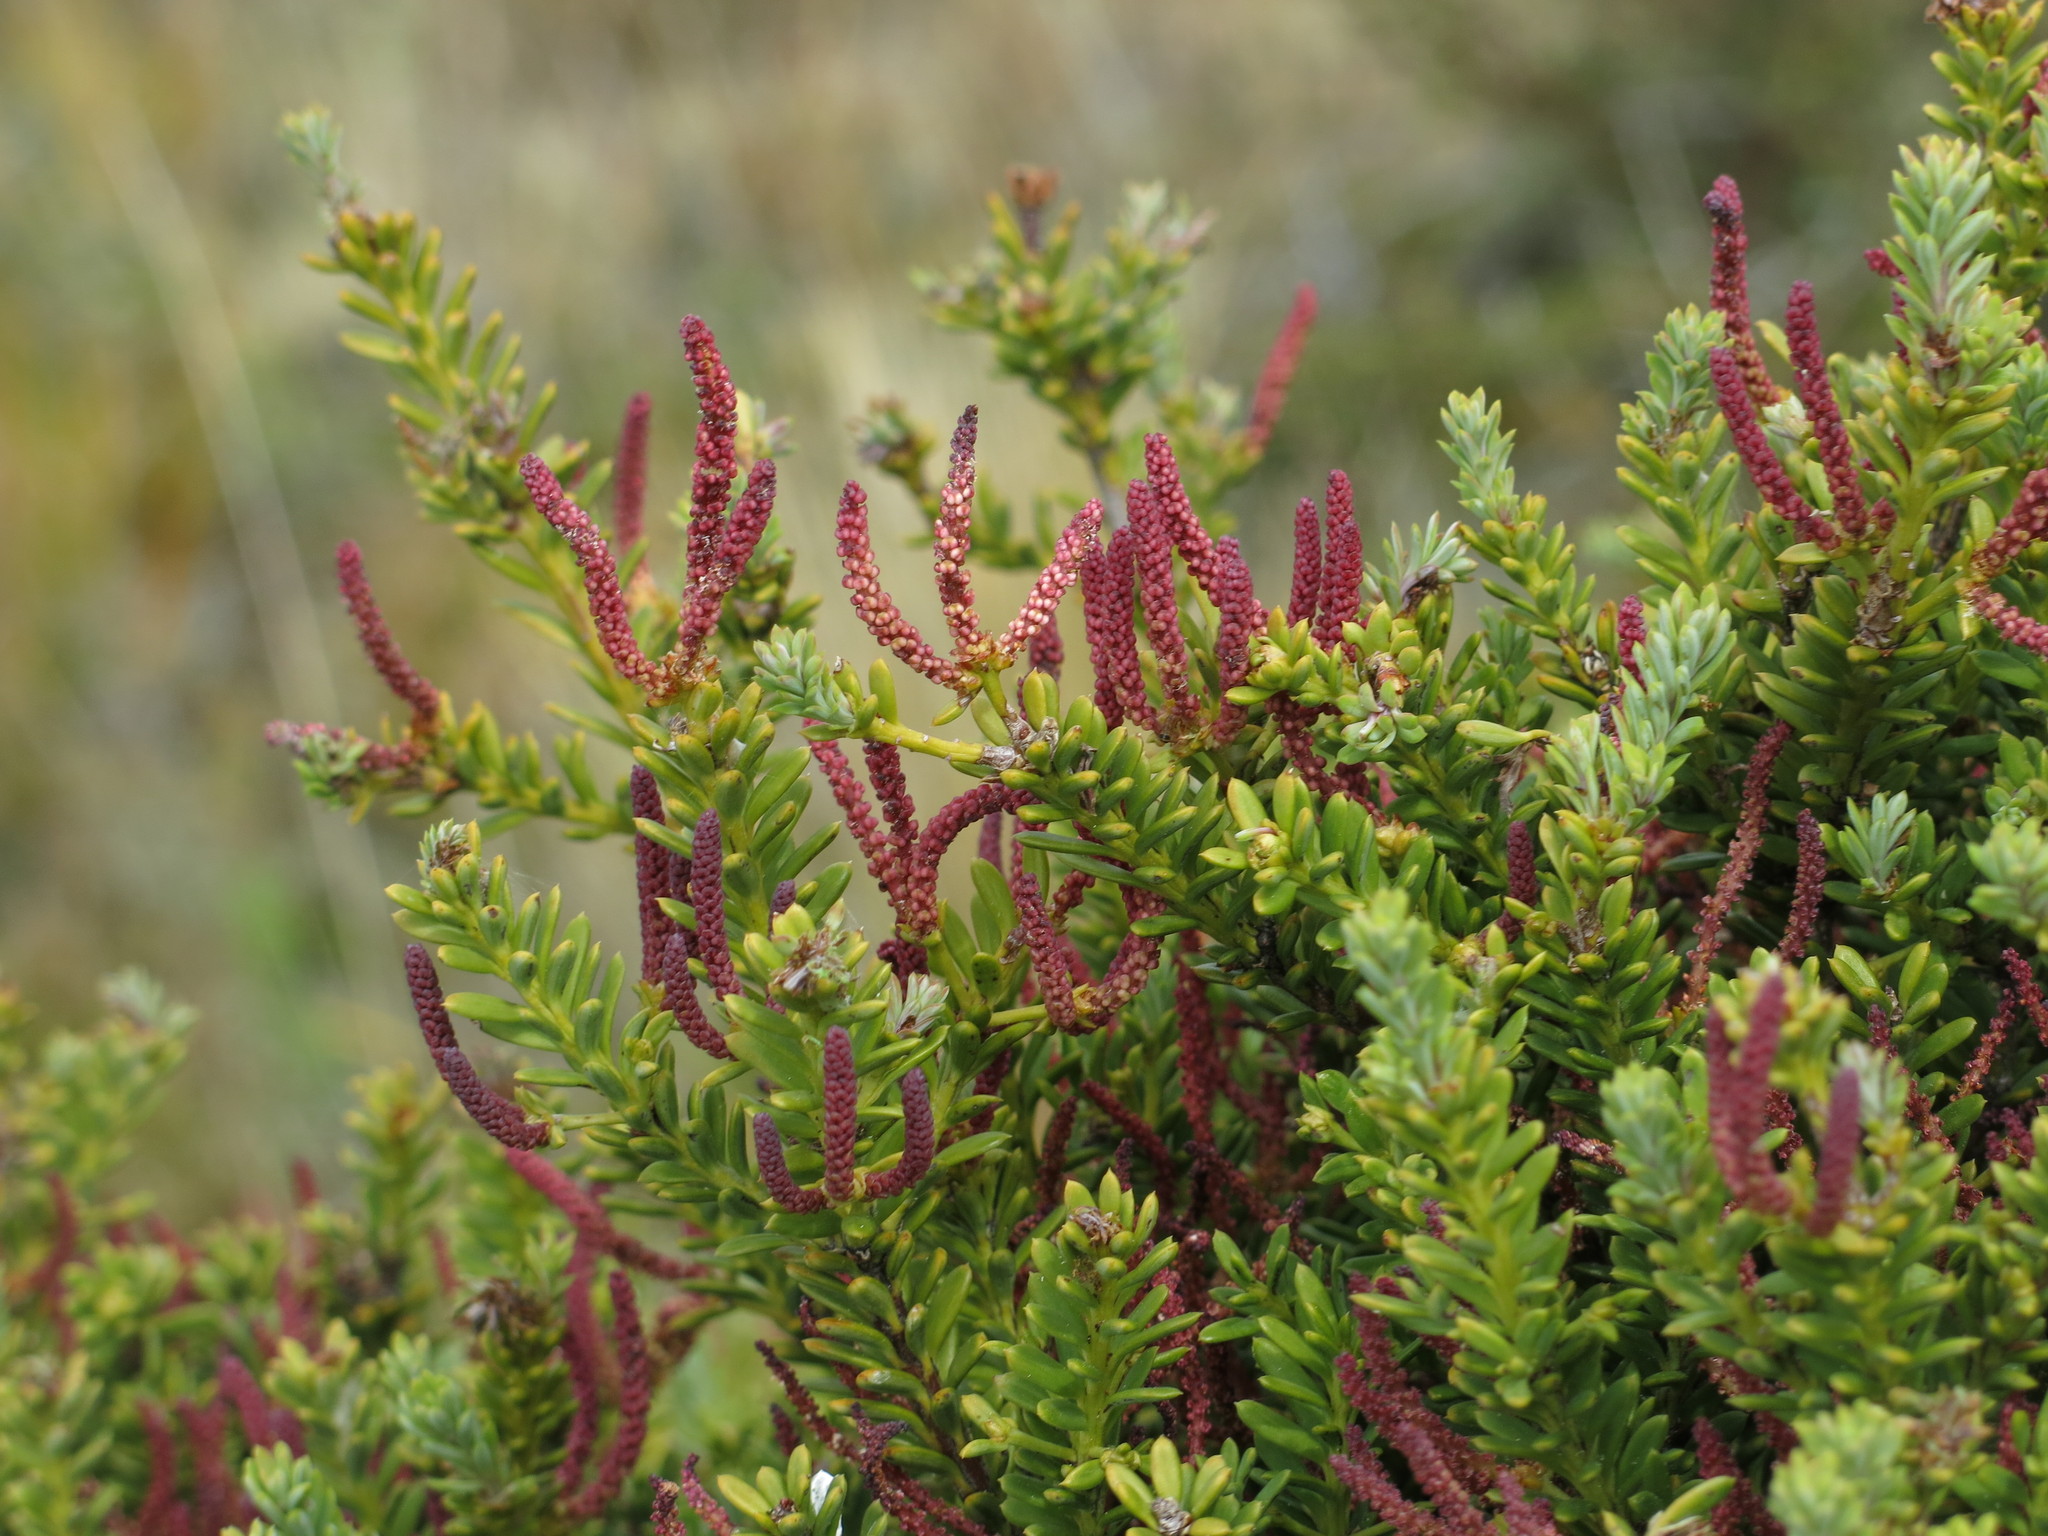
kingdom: Plantae
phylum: Tracheophyta
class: Pinopsida
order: Pinales
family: Podocarpaceae
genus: Podocarpus
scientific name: Podocarpus nivalis
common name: Alpine totara
